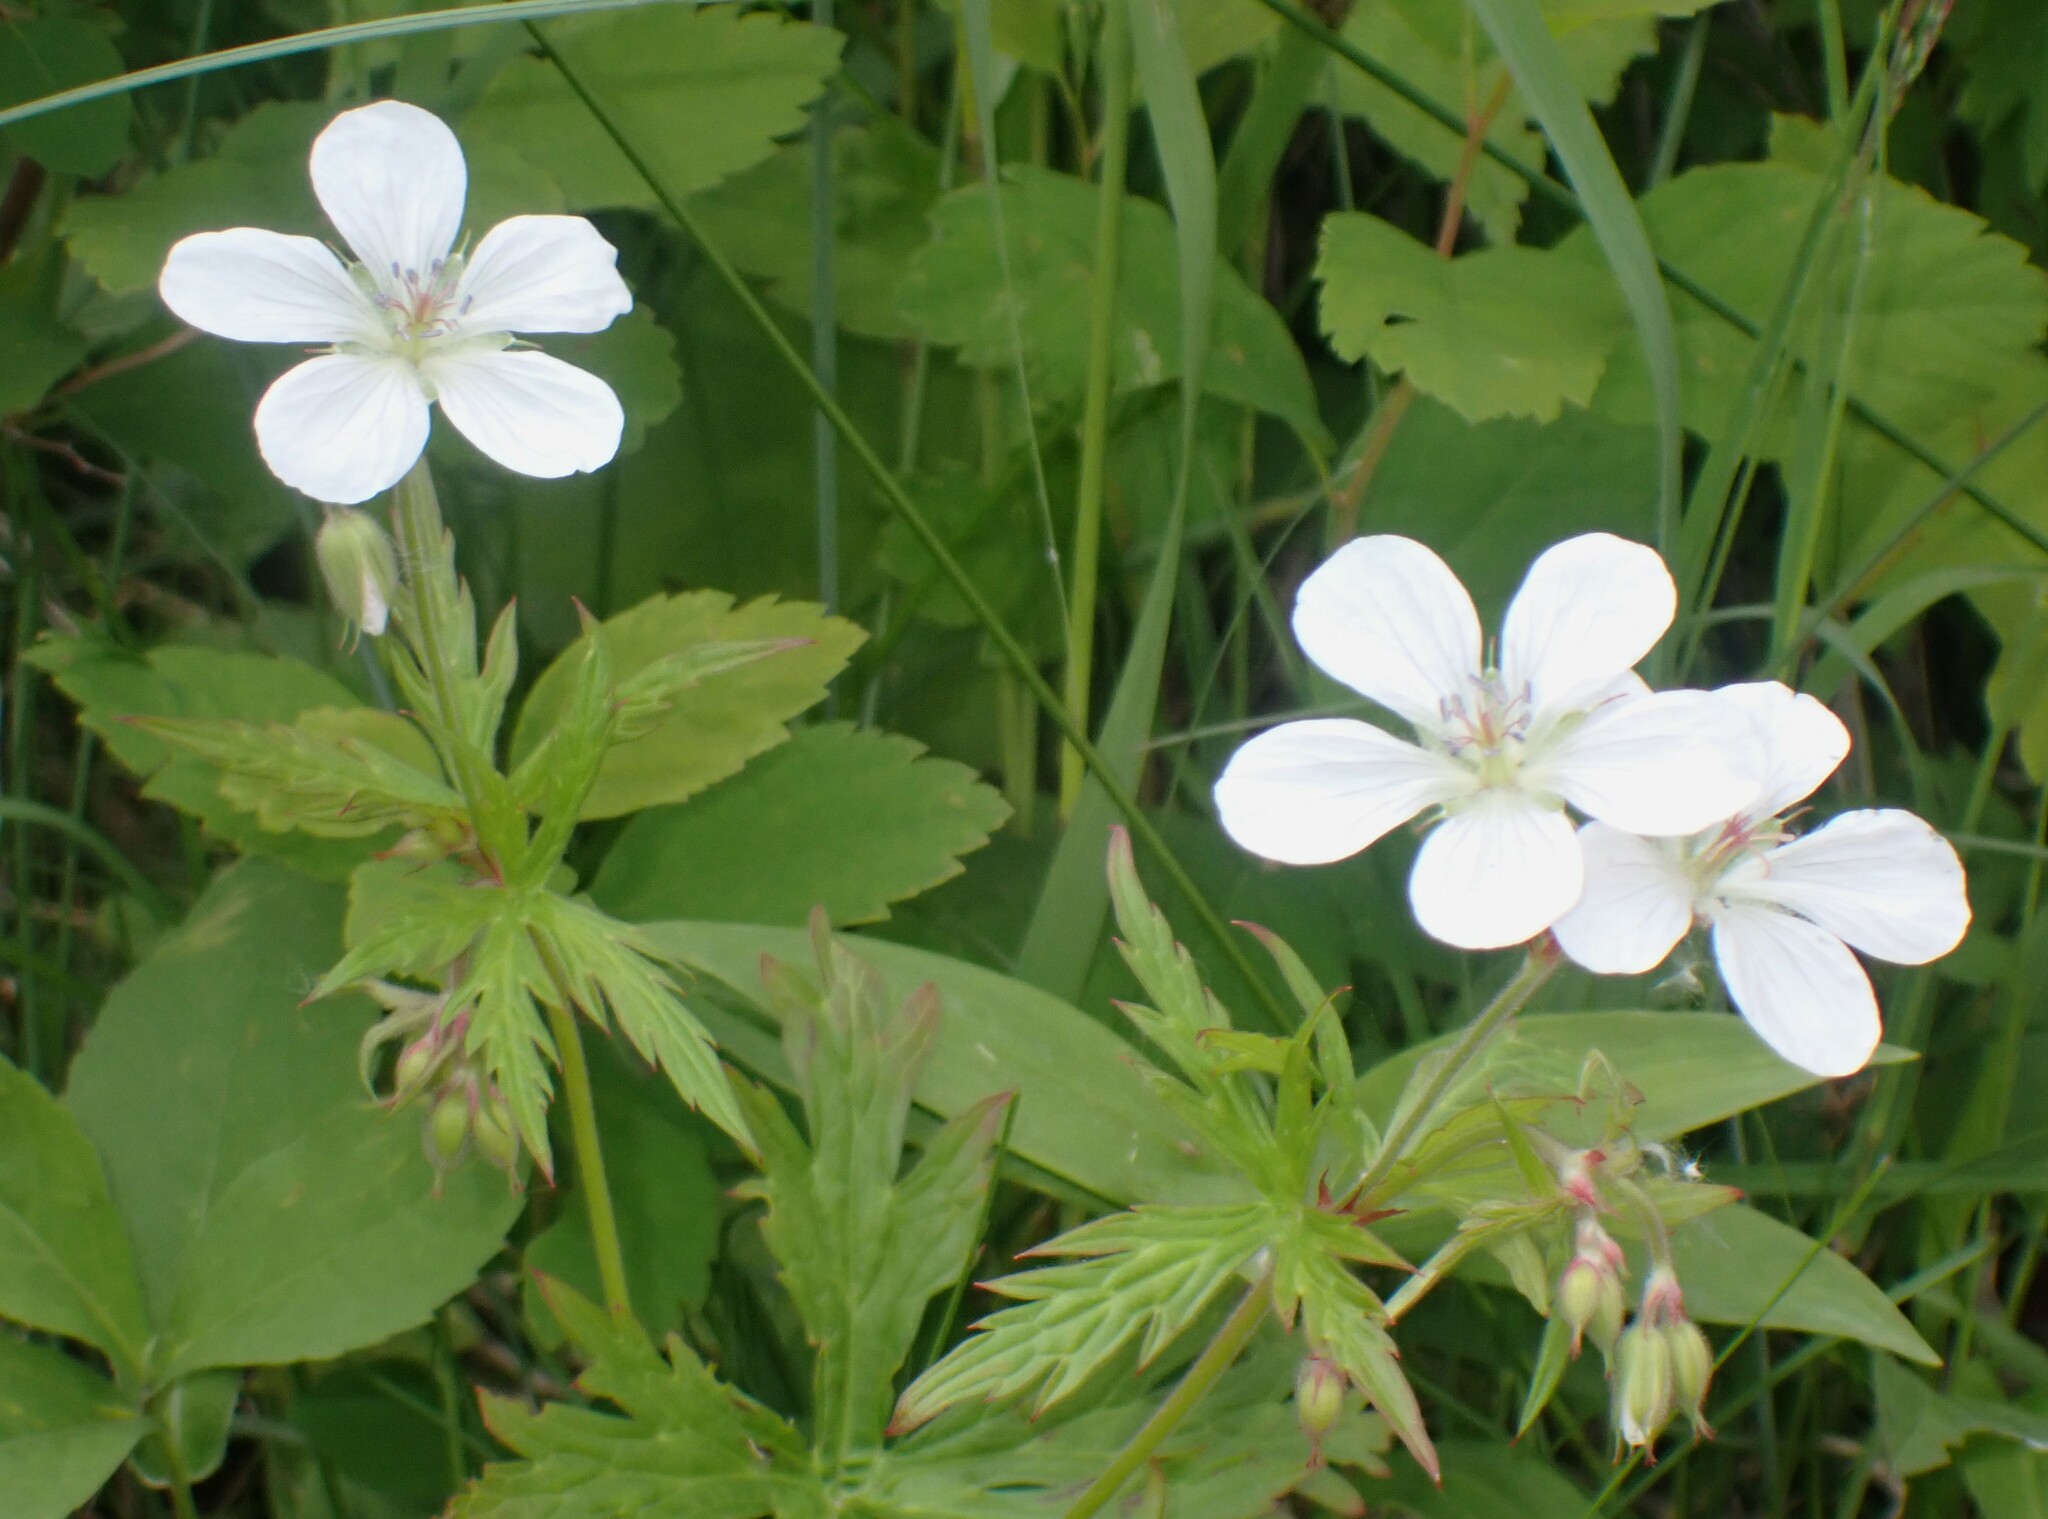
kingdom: Plantae
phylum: Tracheophyta
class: Magnoliopsida
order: Geraniales
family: Geraniaceae
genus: Geranium
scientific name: Geranium richardsonii
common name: Richardson's crane's-bill
